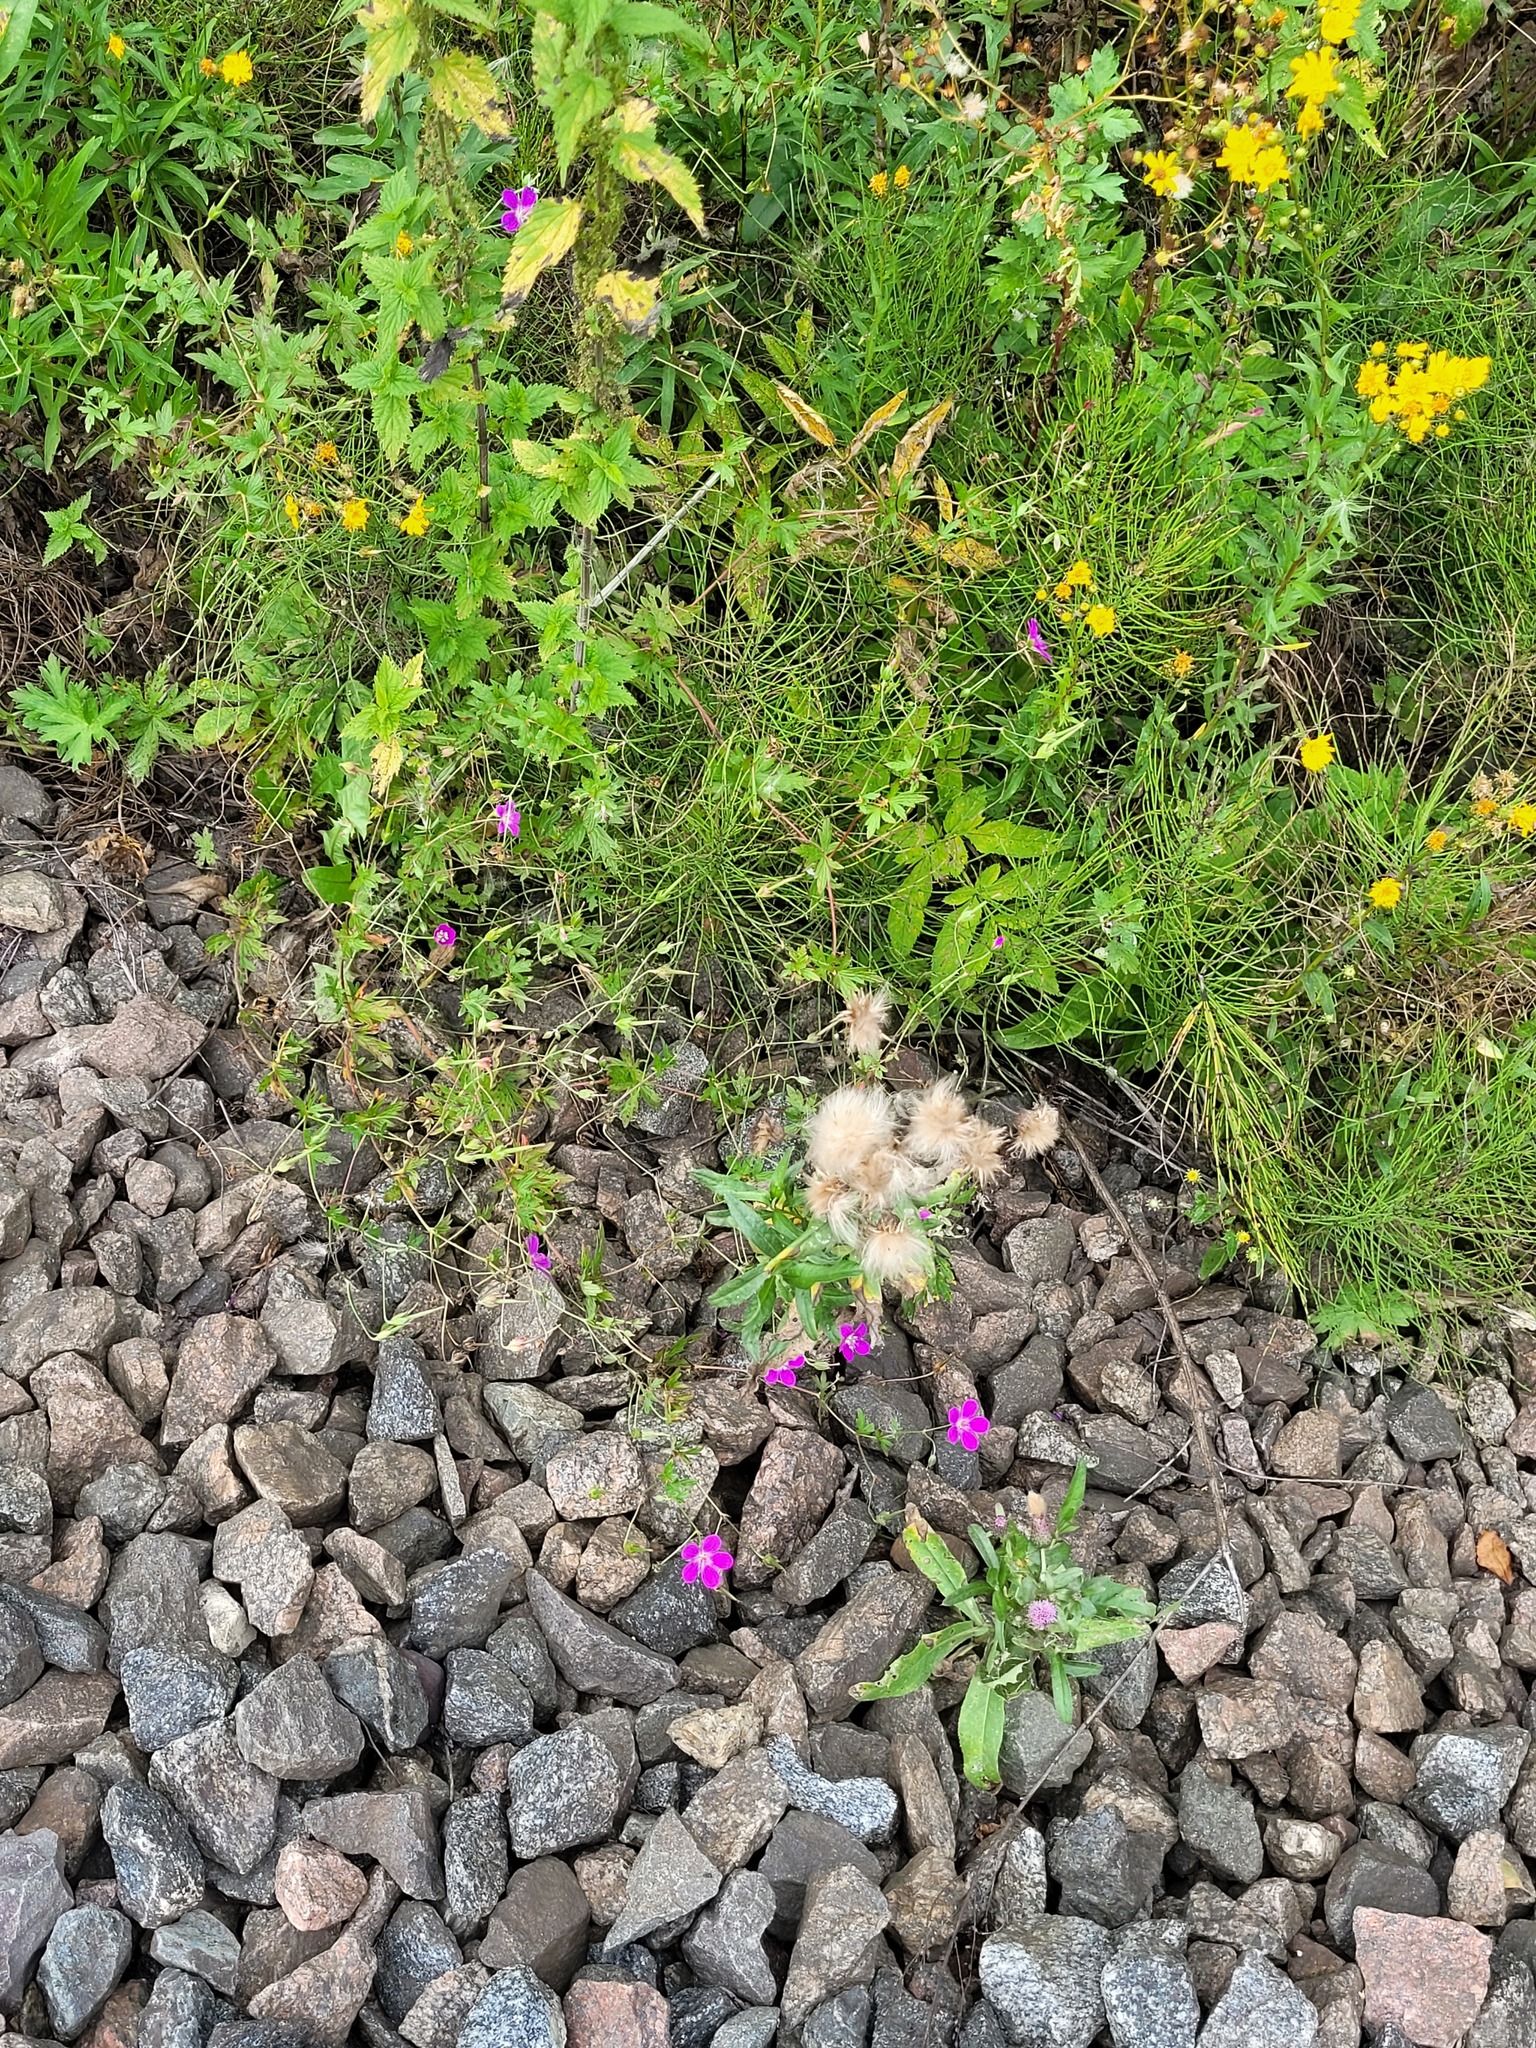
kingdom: Plantae
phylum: Tracheophyta
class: Magnoliopsida
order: Geraniales
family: Geraniaceae
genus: Geranium
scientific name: Geranium palustre
